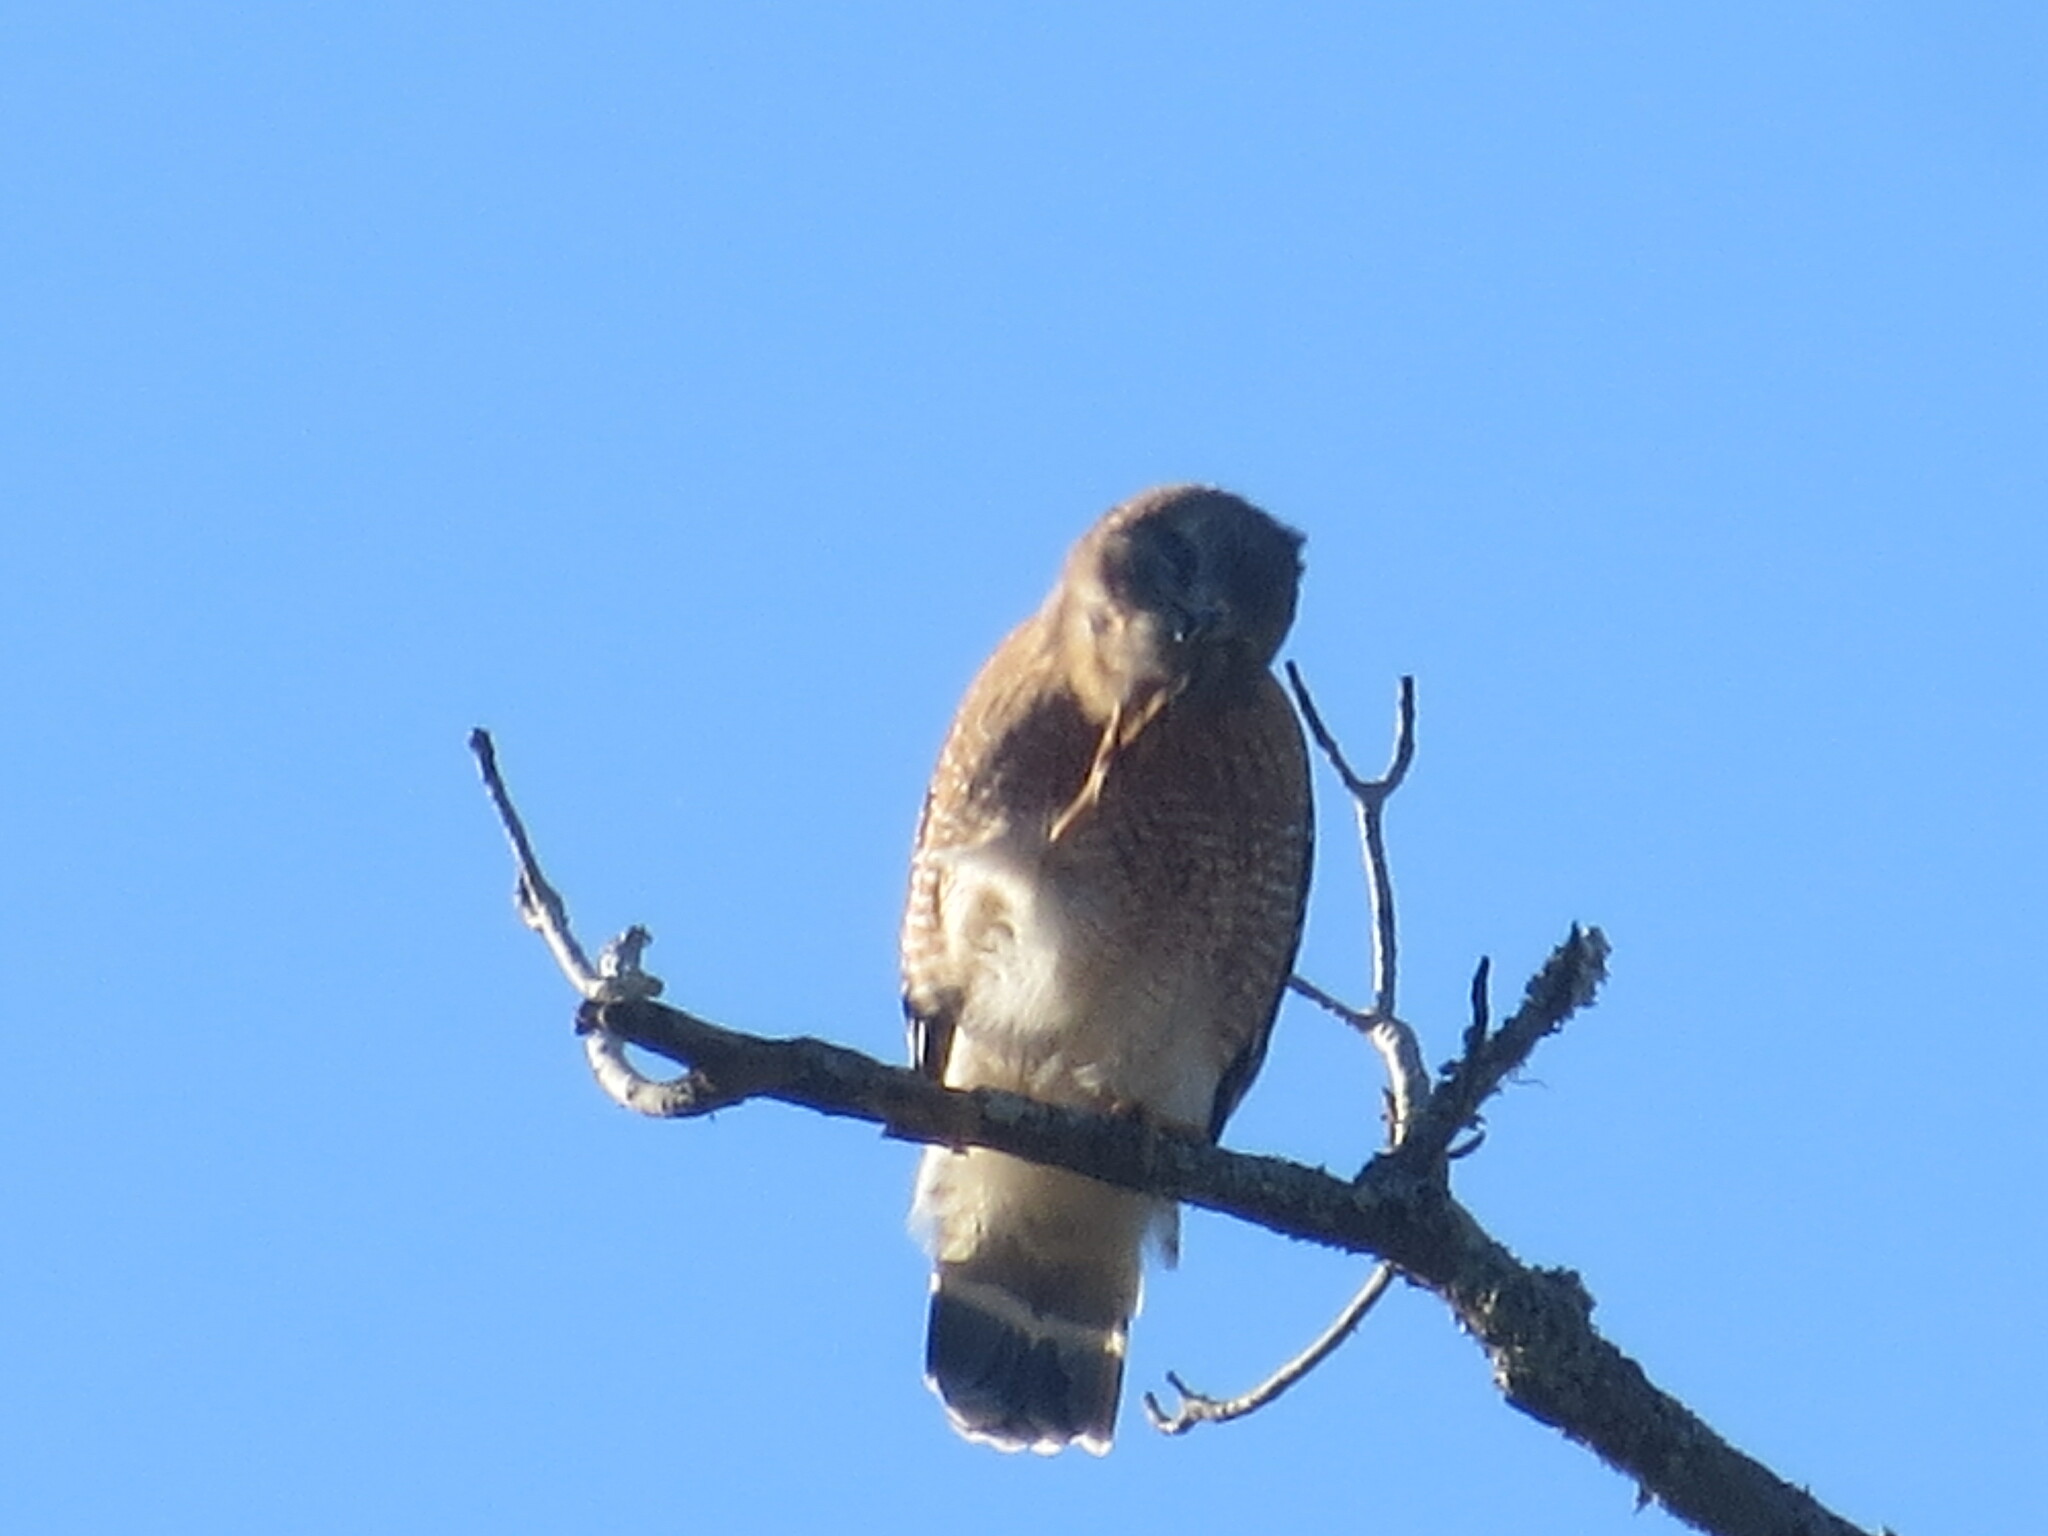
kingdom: Animalia
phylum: Chordata
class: Aves
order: Accipitriformes
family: Accipitridae
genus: Buteo
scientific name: Buteo lineatus
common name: Red-shouldered hawk
